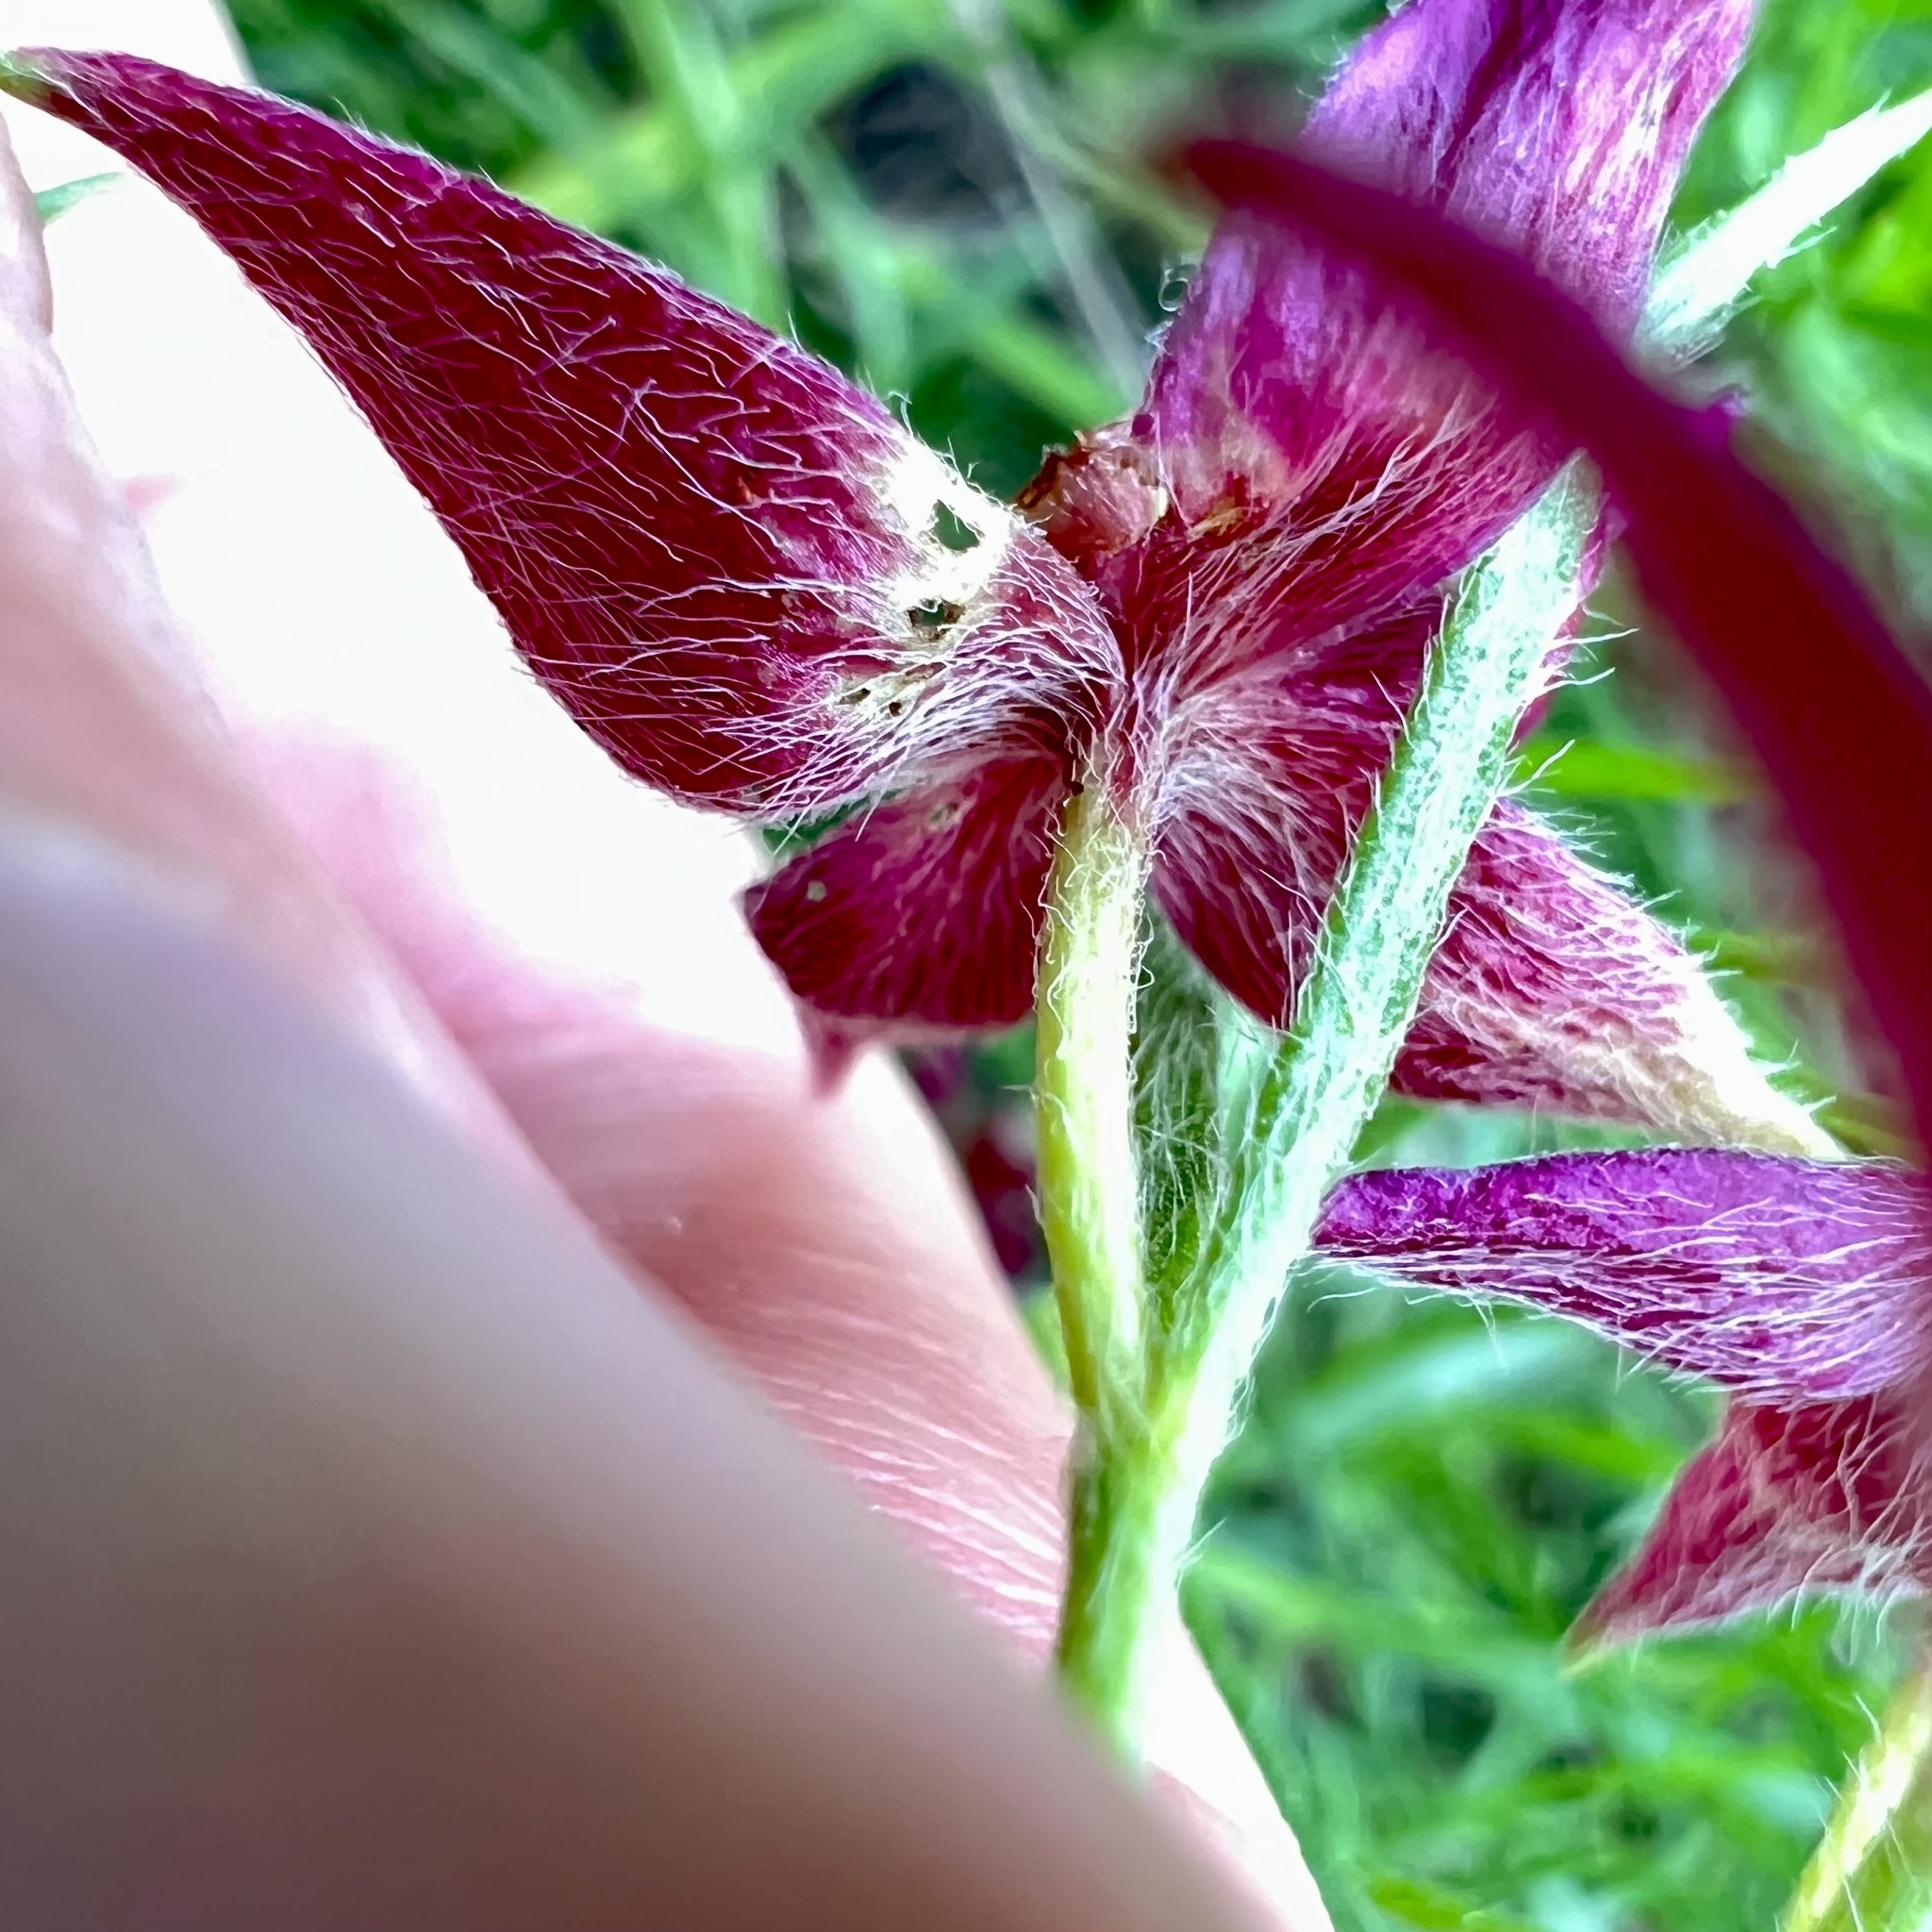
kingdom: Plantae
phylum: Tracheophyta
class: Magnoliopsida
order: Zygophyllales
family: Krameriaceae
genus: Krameria
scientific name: Krameria lanceolata
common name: Ratany
